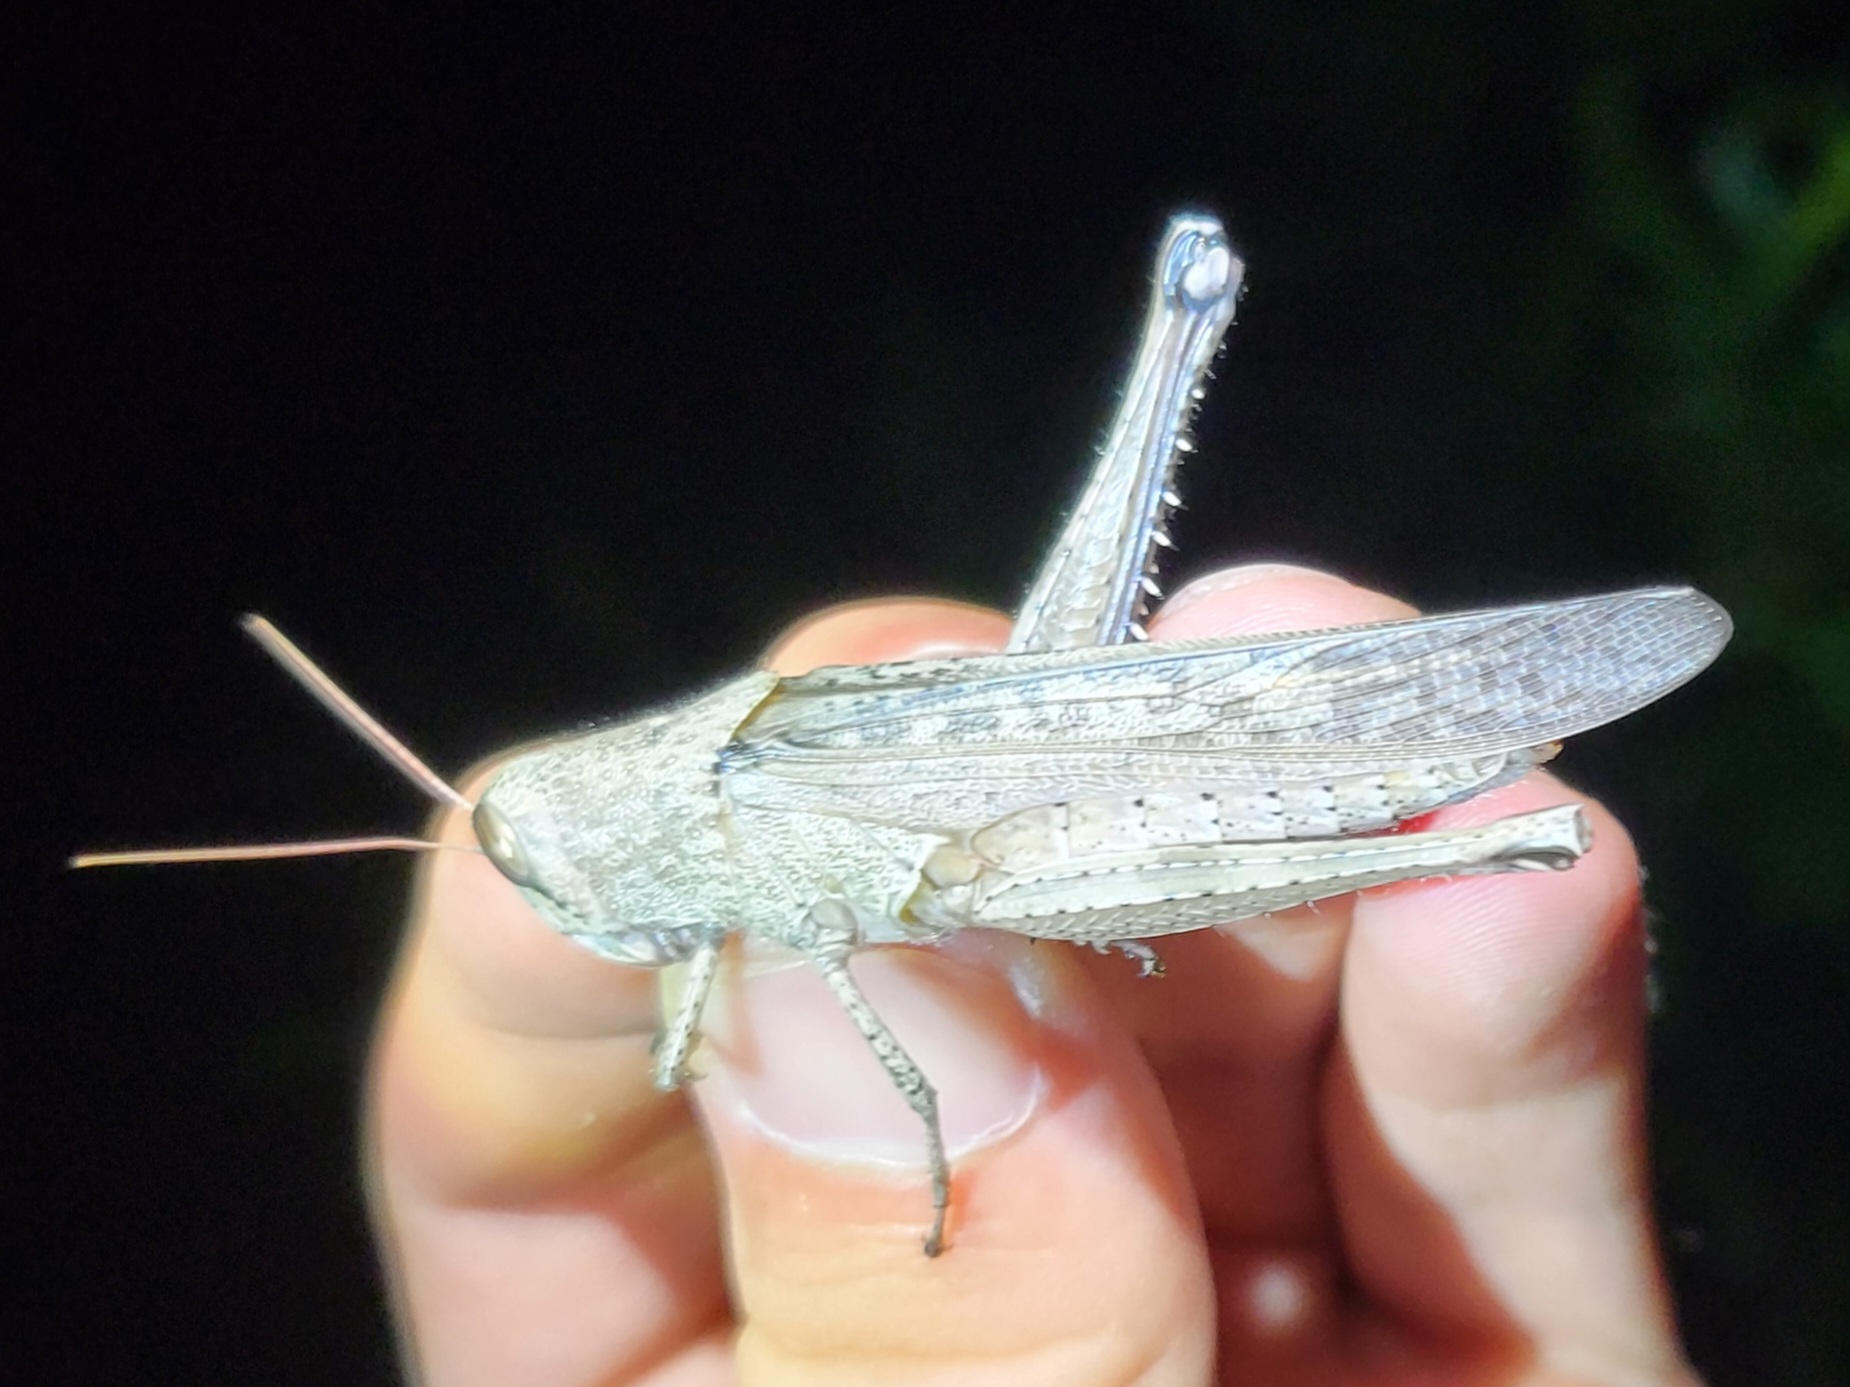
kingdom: Animalia
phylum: Arthropoda
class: Insecta
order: Orthoptera
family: Acrididae
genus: Schistocerca
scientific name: Schistocerca rubiginosa
